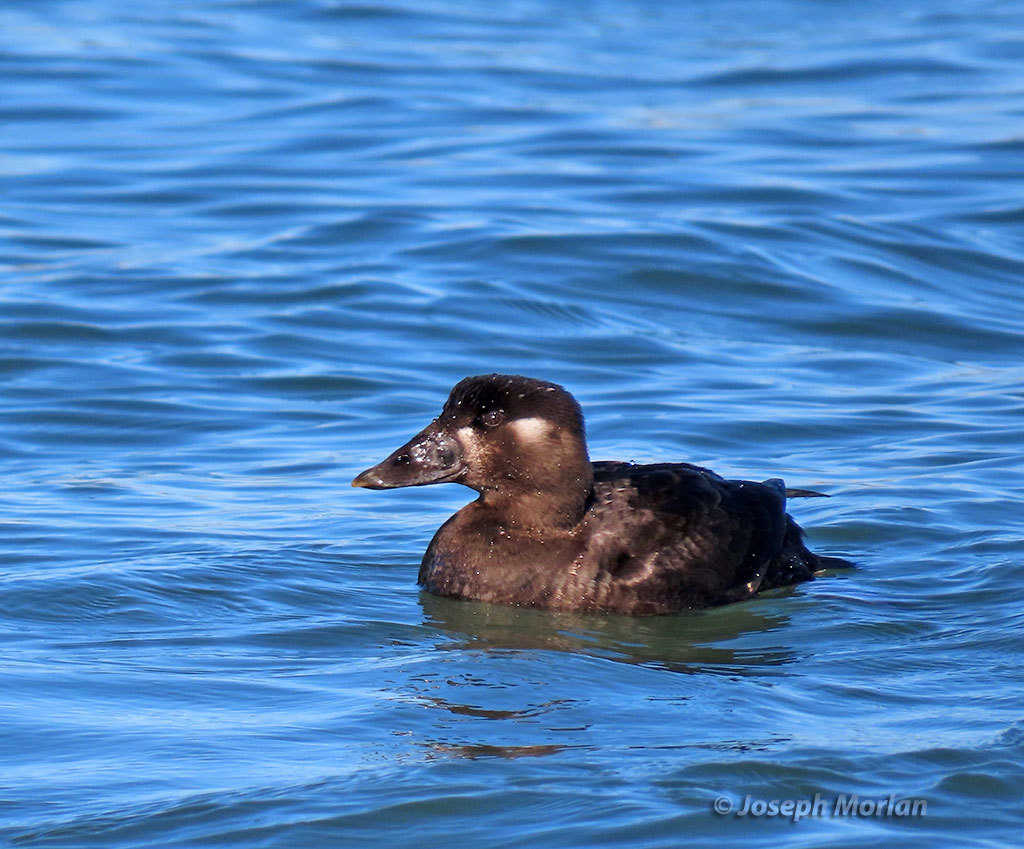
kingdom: Animalia
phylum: Chordata
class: Aves
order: Anseriformes
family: Anatidae
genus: Melanitta
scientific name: Melanitta perspicillata
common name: Surf scoter
